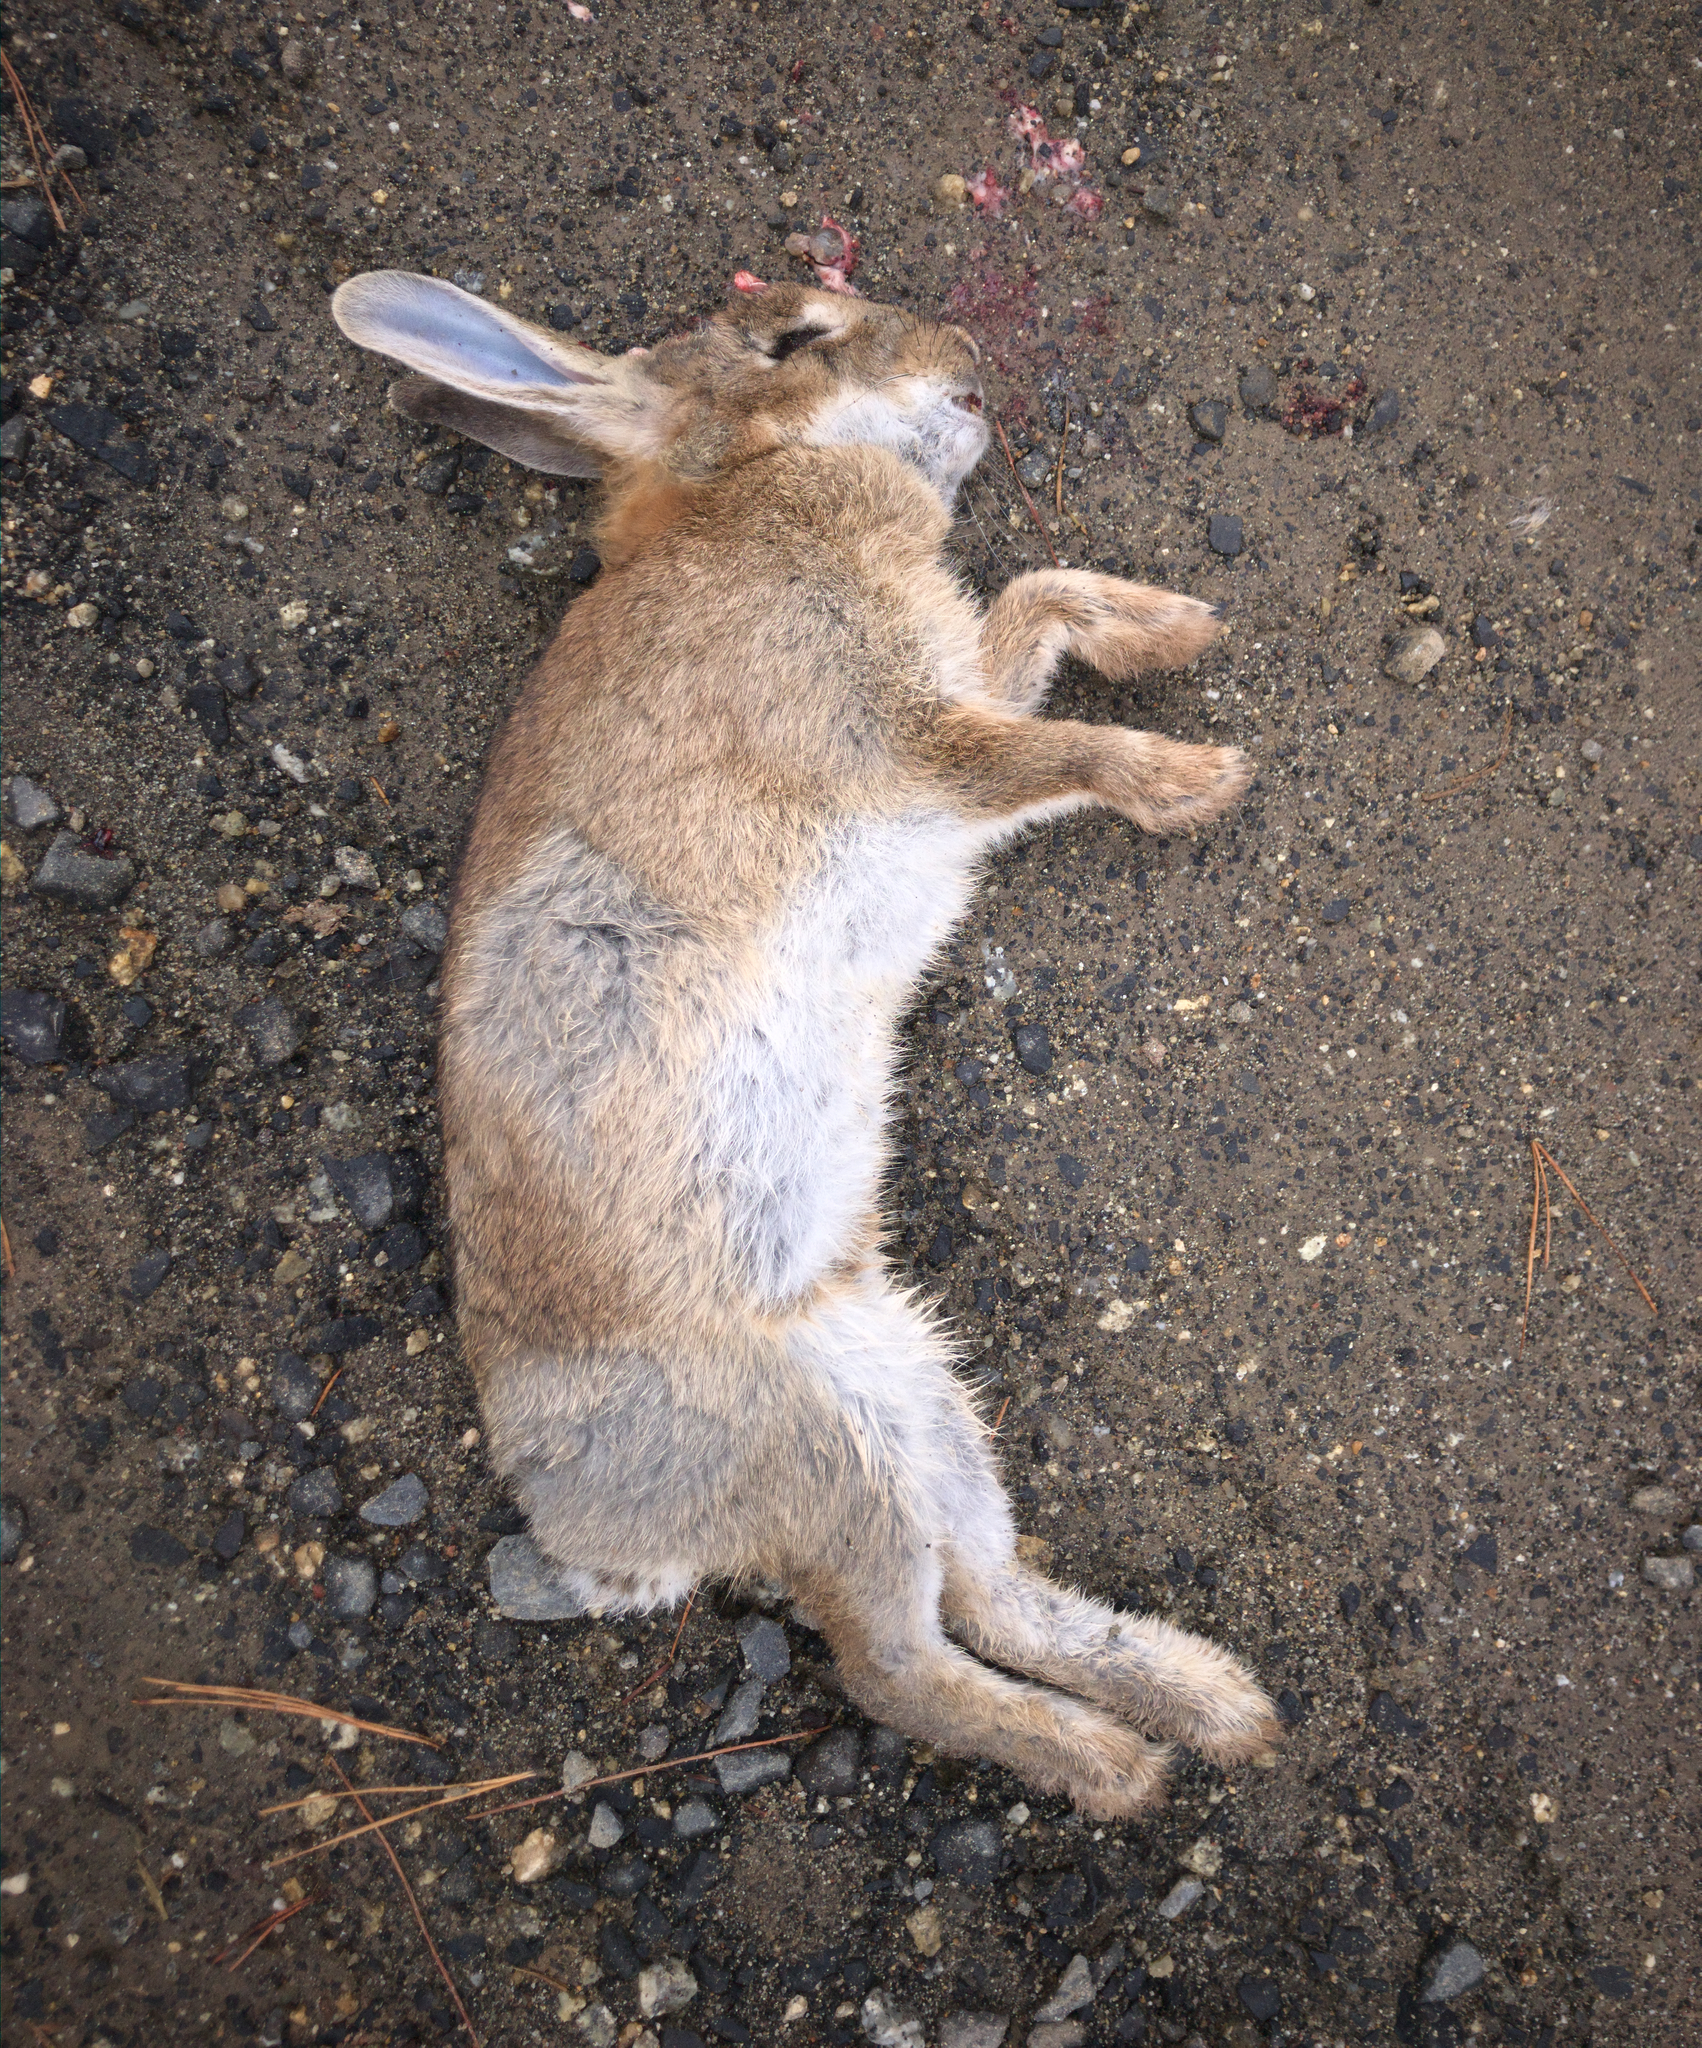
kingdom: Animalia
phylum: Chordata
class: Mammalia
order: Lagomorpha
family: Leporidae
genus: Oryctolagus
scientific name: Oryctolagus cuniculus
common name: European rabbit
